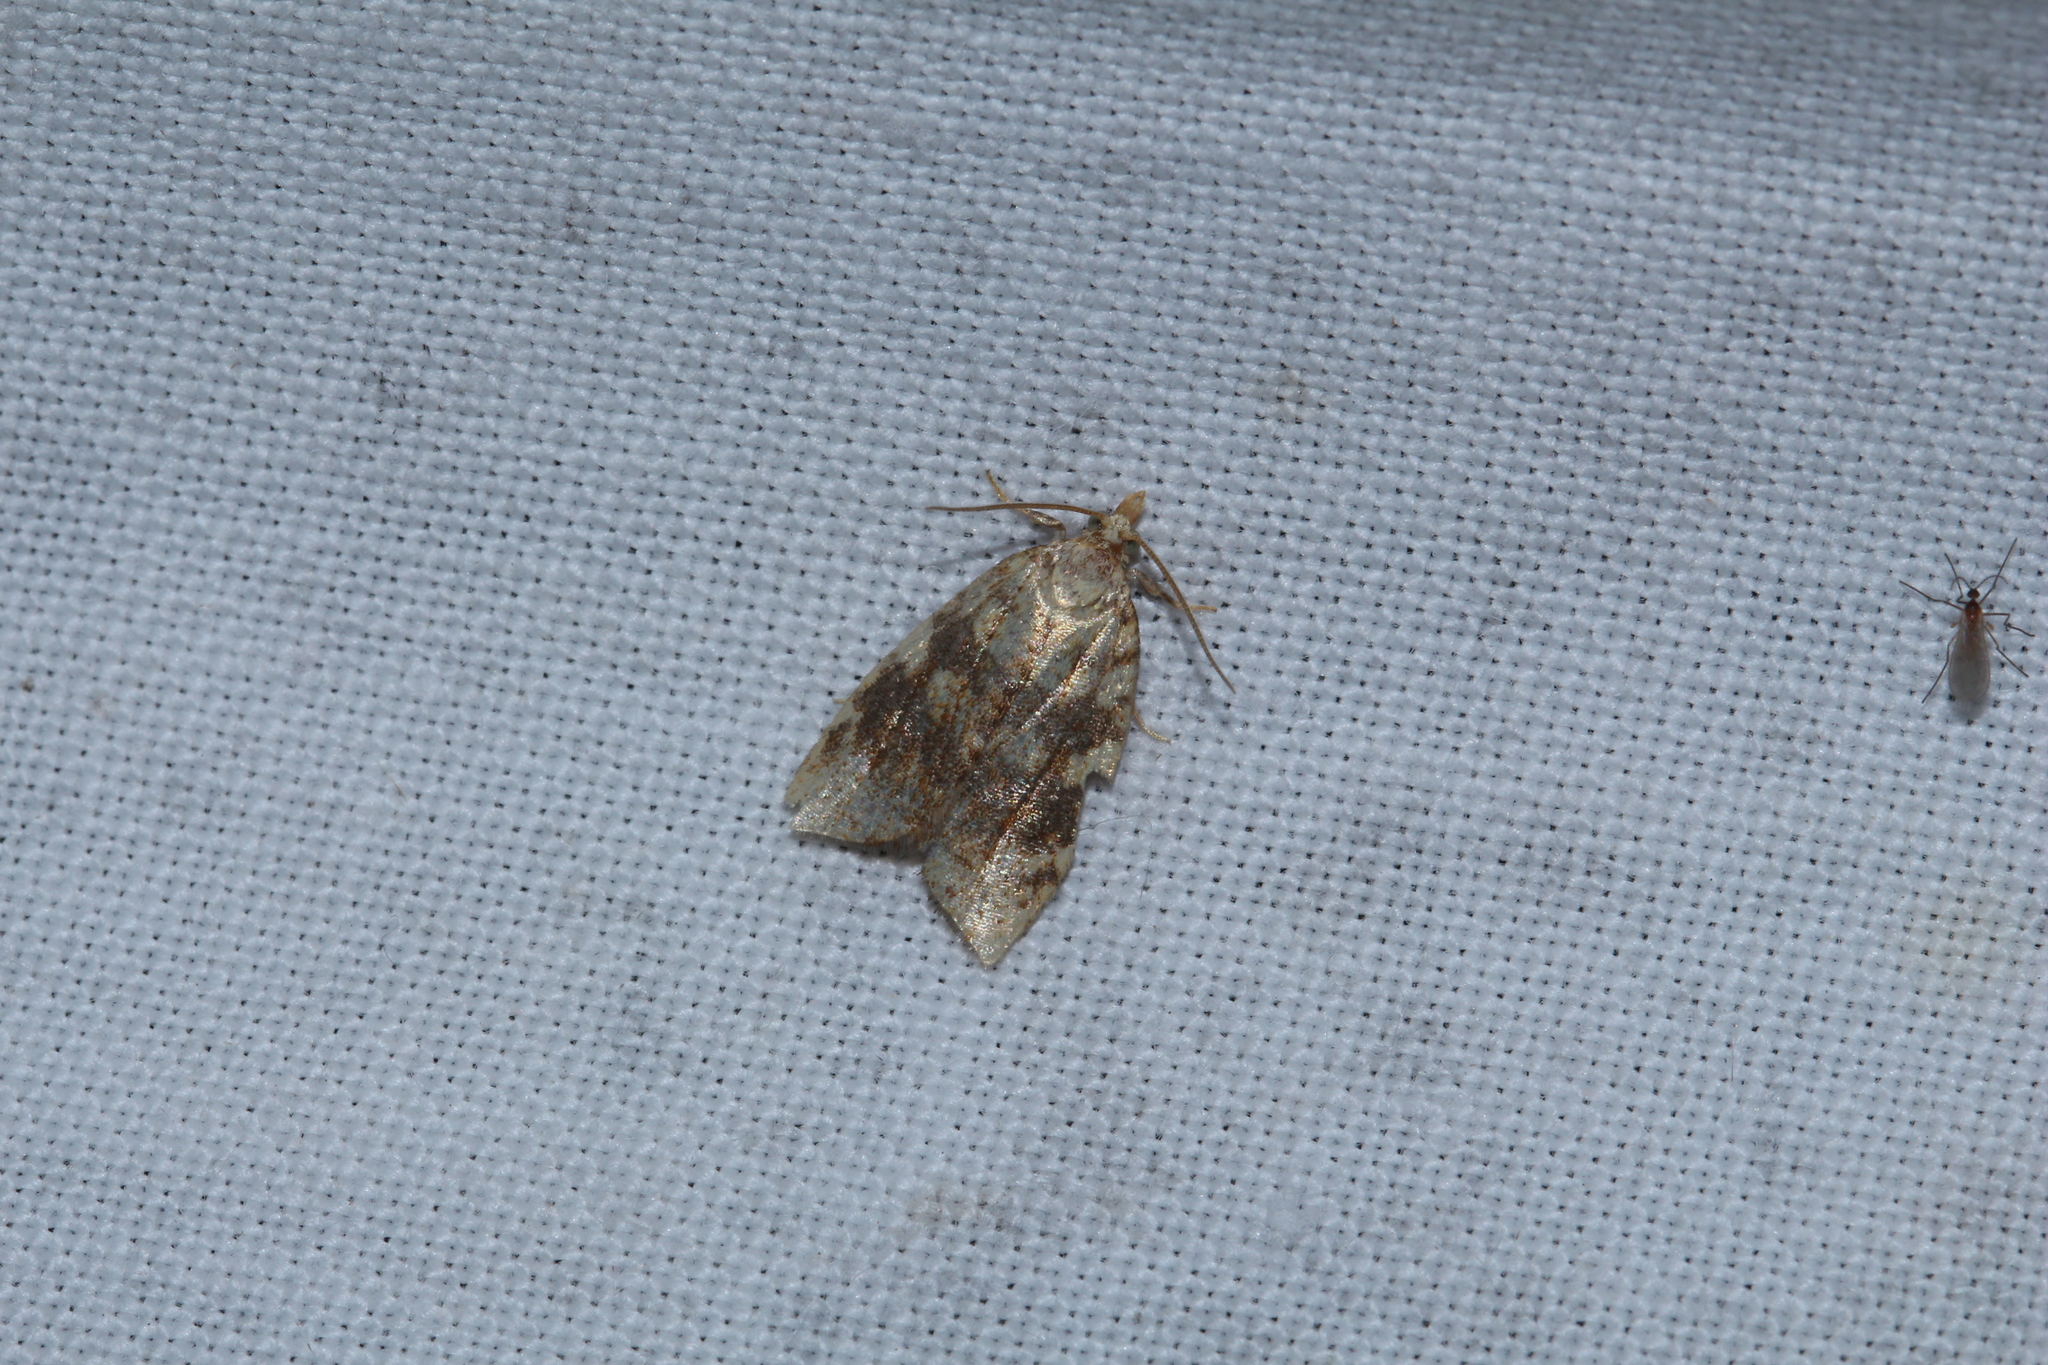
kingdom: Animalia
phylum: Arthropoda
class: Insecta
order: Lepidoptera
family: Tortricidae
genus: Aleimma
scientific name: Aleimma loeflingiana
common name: Yellow oak button
